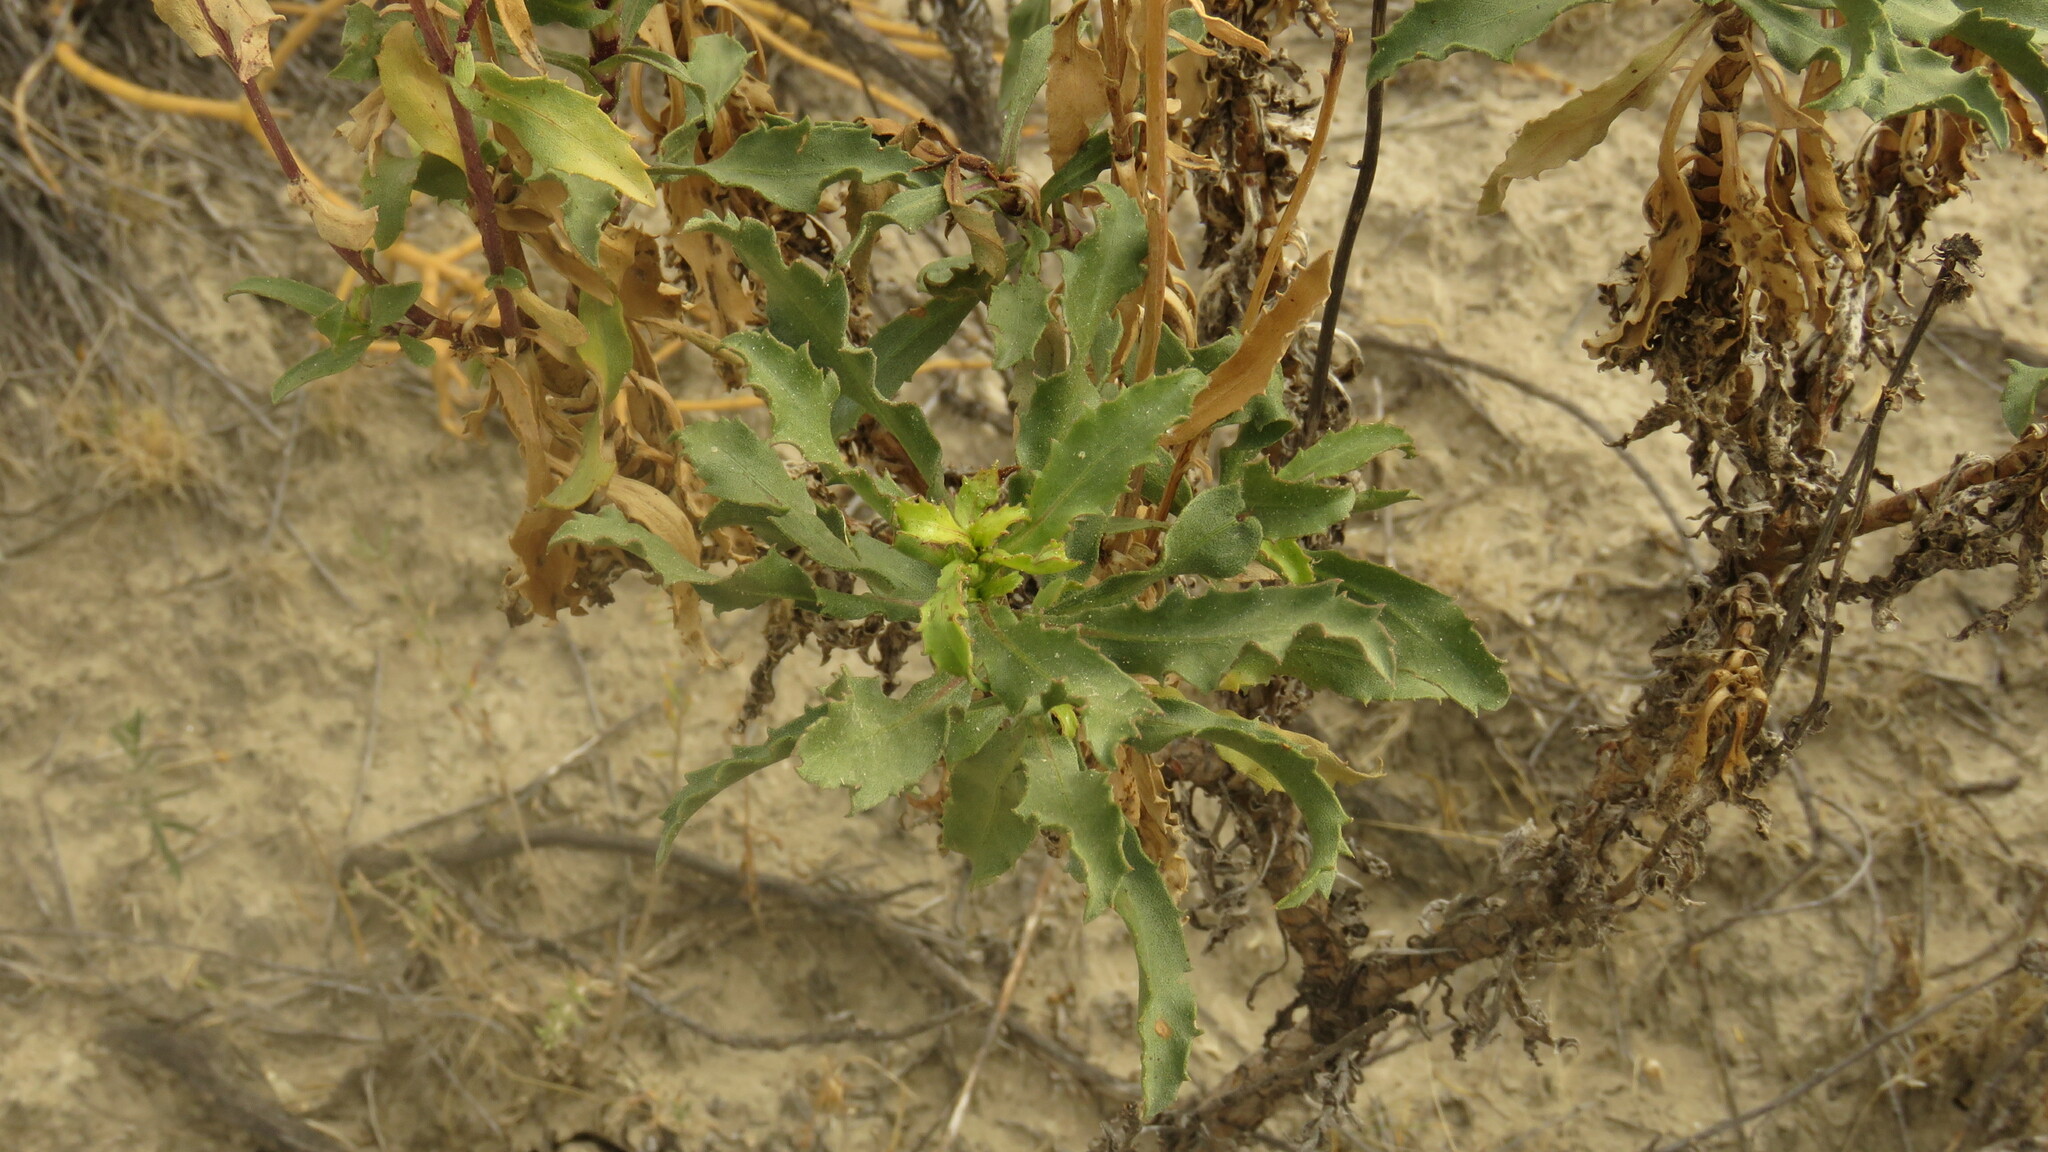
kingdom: Plantae
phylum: Tracheophyta
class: Magnoliopsida
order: Asterales
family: Asteraceae
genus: Grindelia
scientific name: Grindelia chiloensis
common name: Shrubby gumweed
